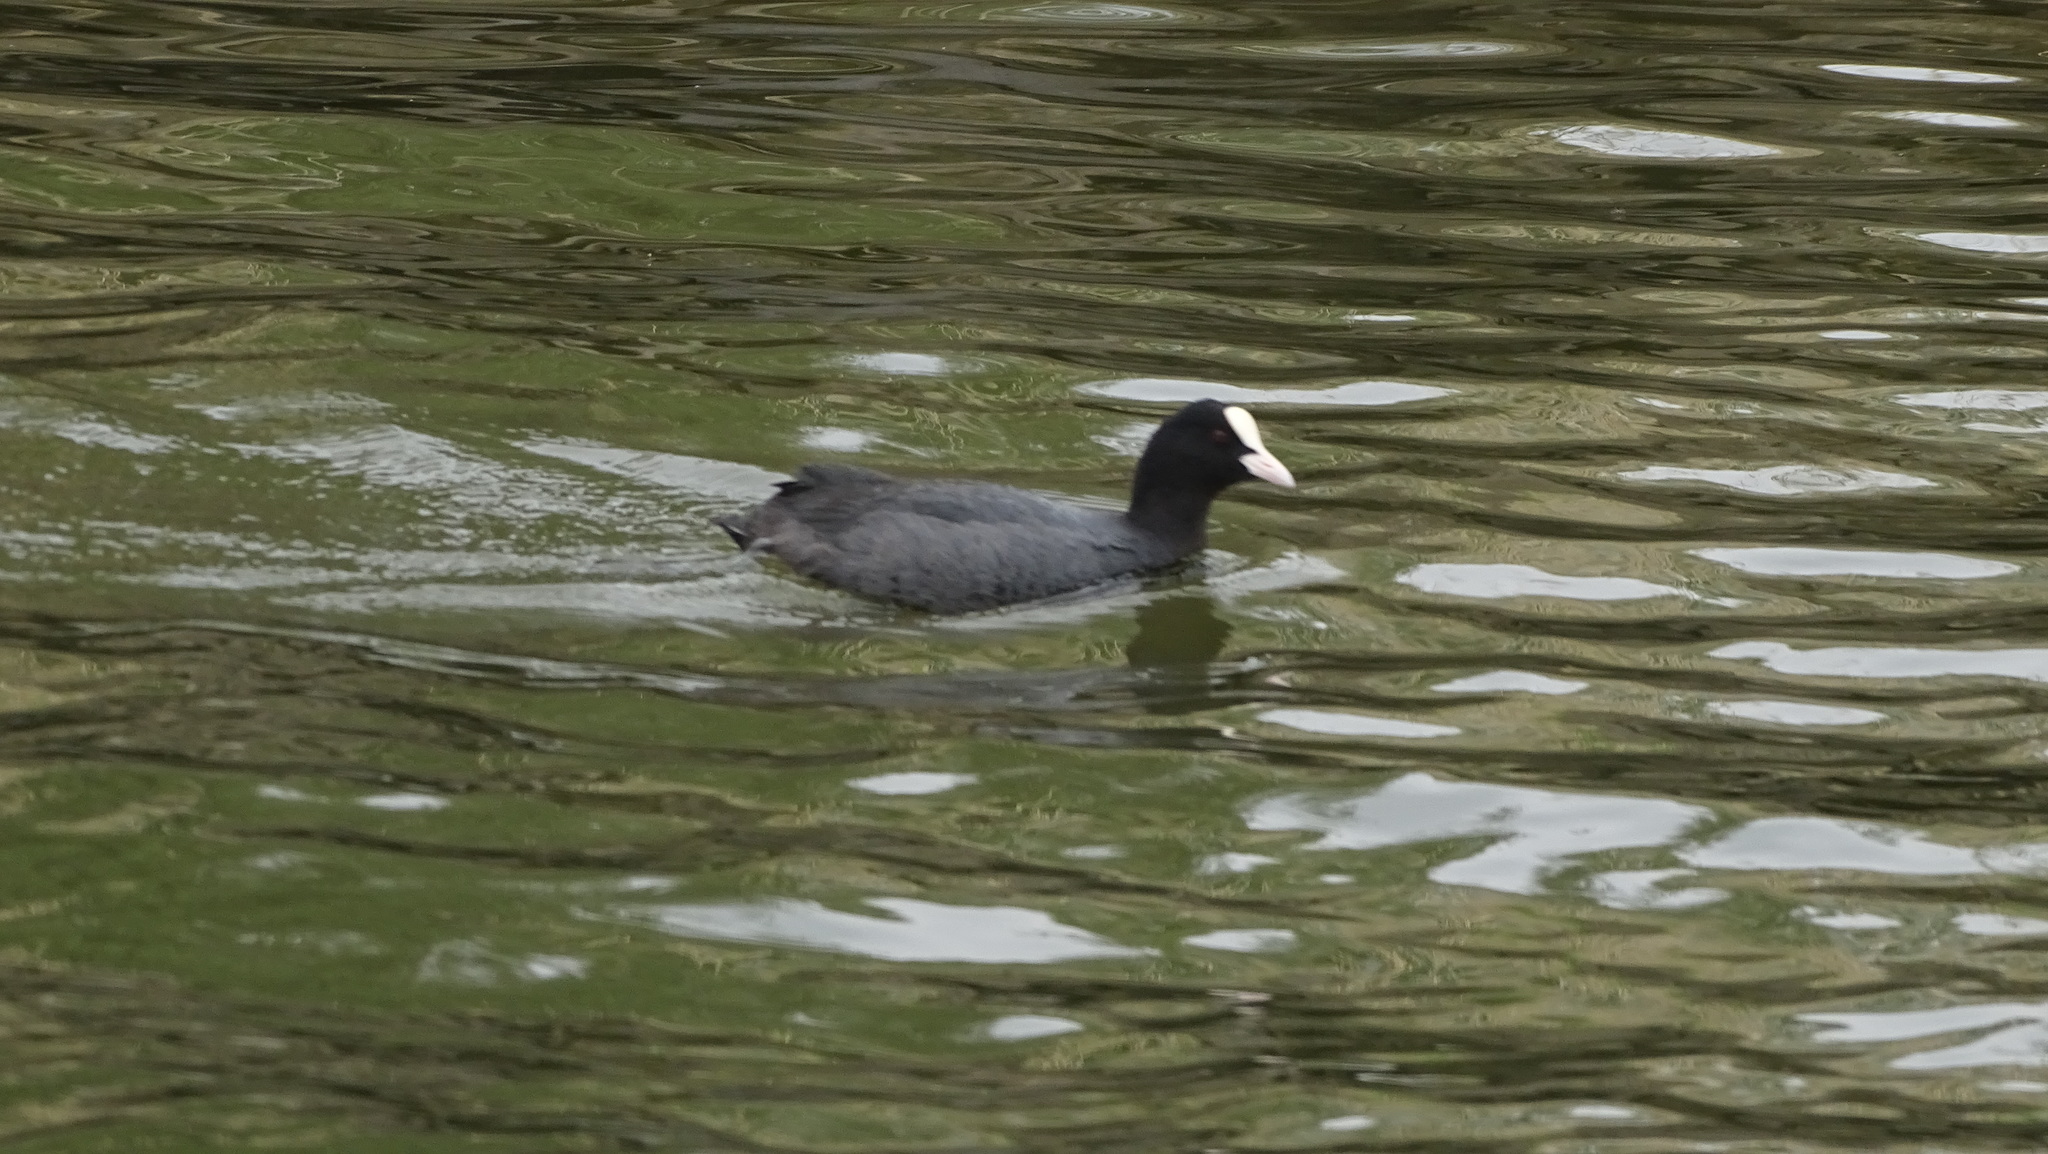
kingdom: Animalia
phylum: Chordata
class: Aves
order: Gruiformes
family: Rallidae
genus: Fulica
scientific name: Fulica atra
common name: Eurasian coot
